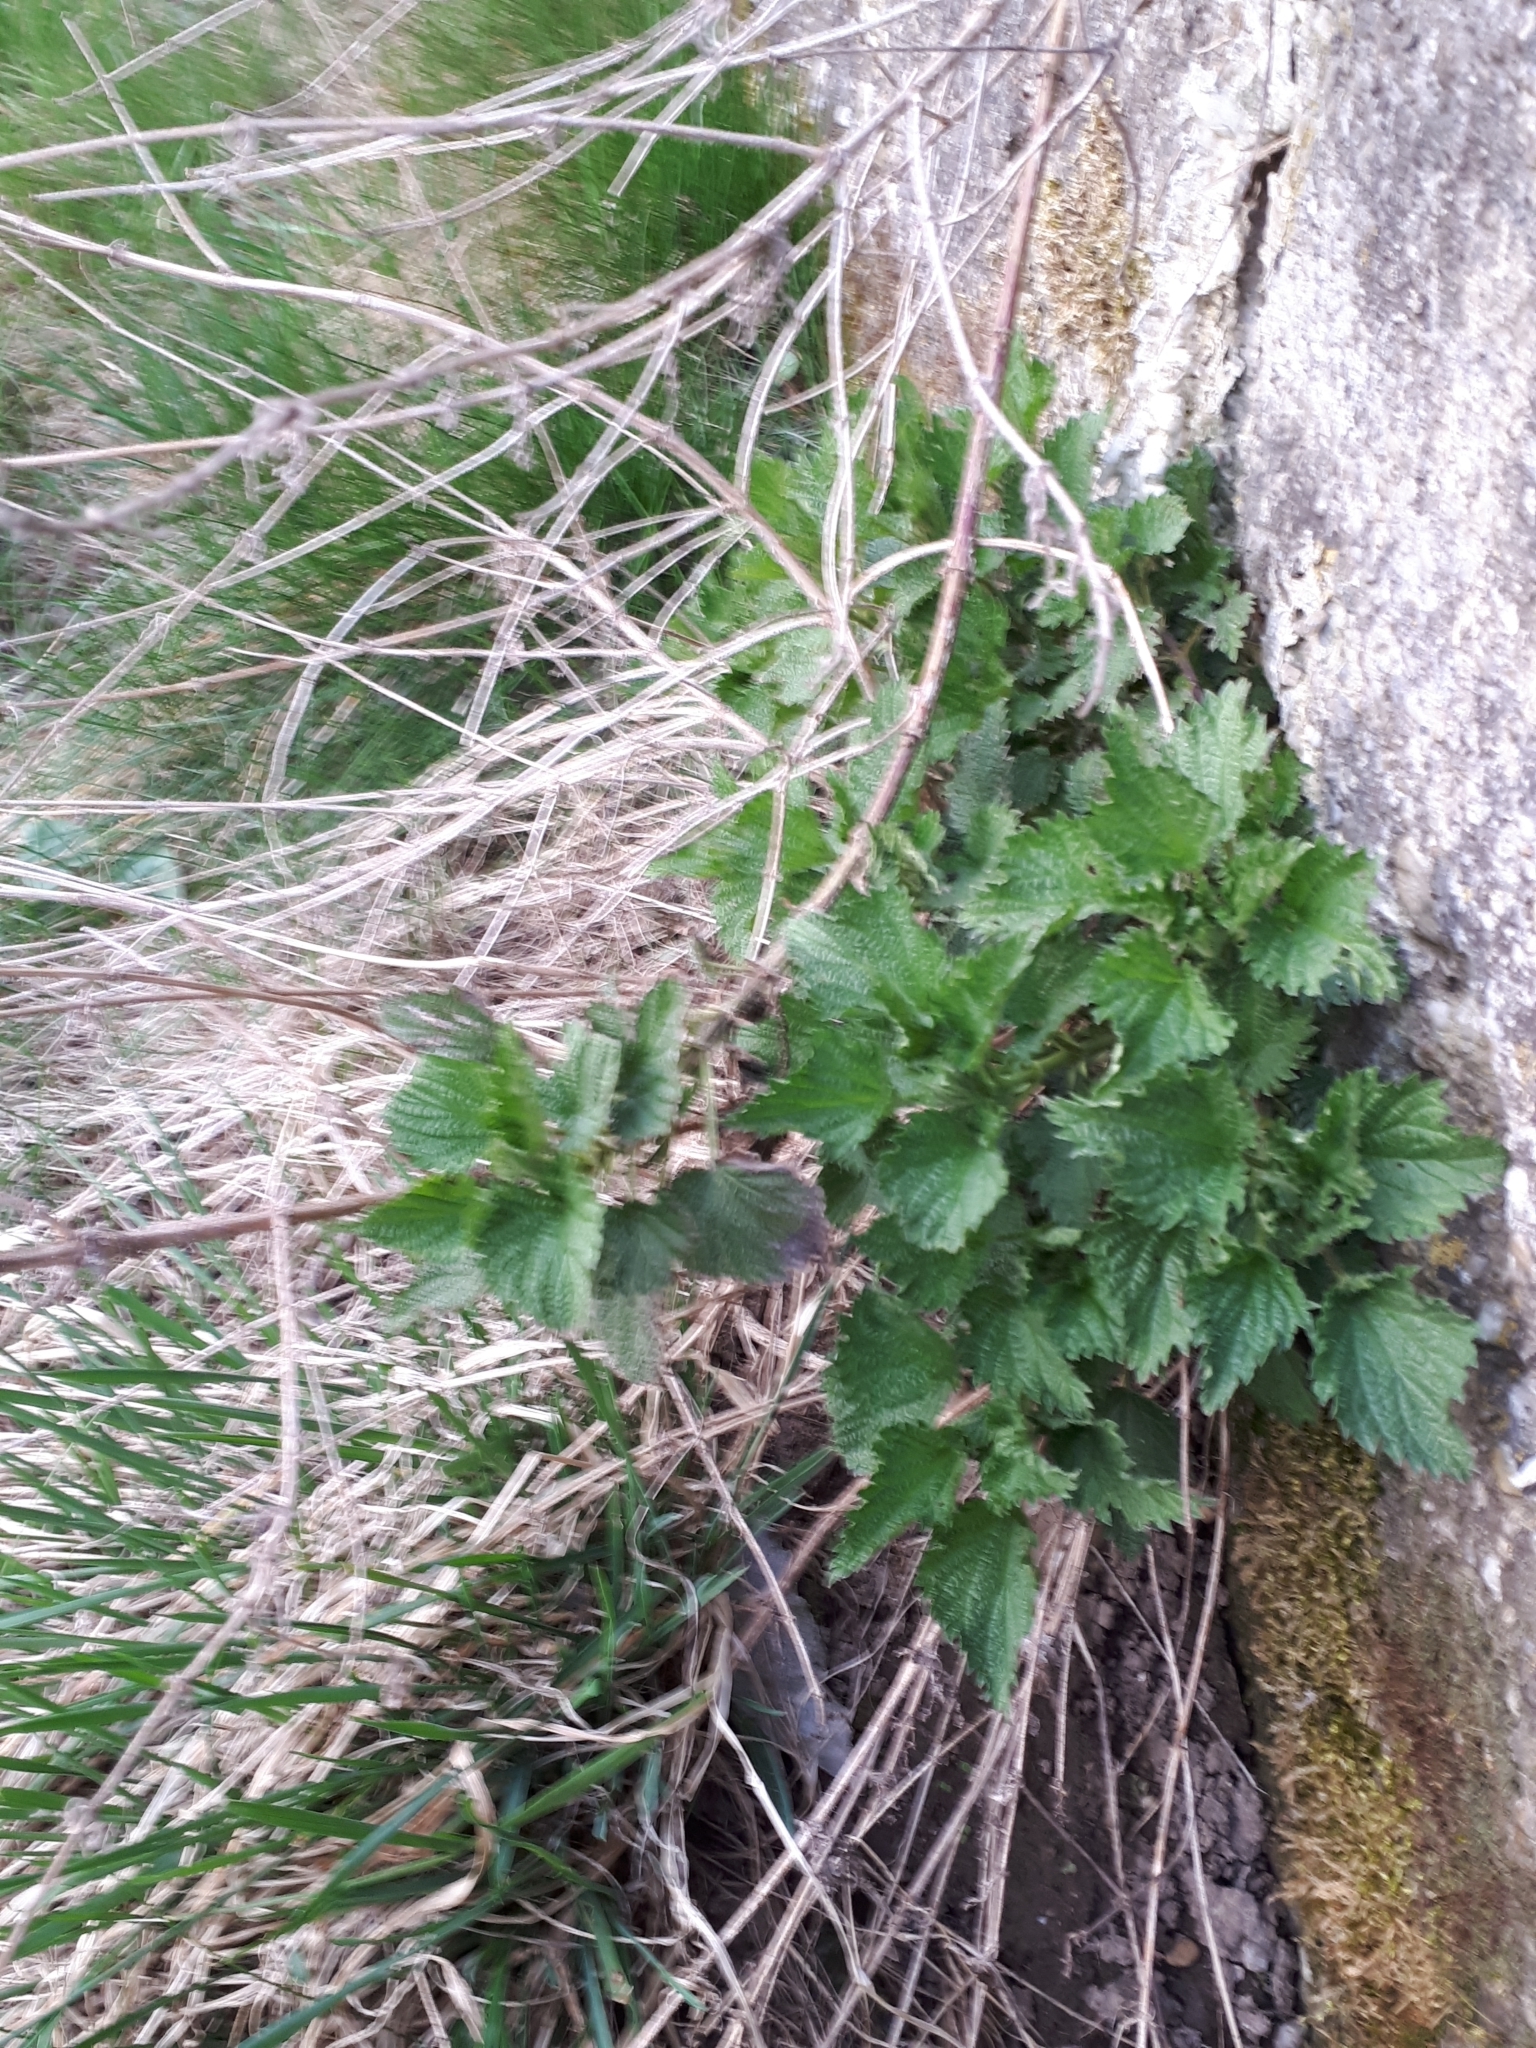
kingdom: Plantae
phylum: Tracheophyta
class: Magnoliopsida
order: Rosales
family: Urticaceae
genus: Urtica
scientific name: Urtica dioica
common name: Common nettle
